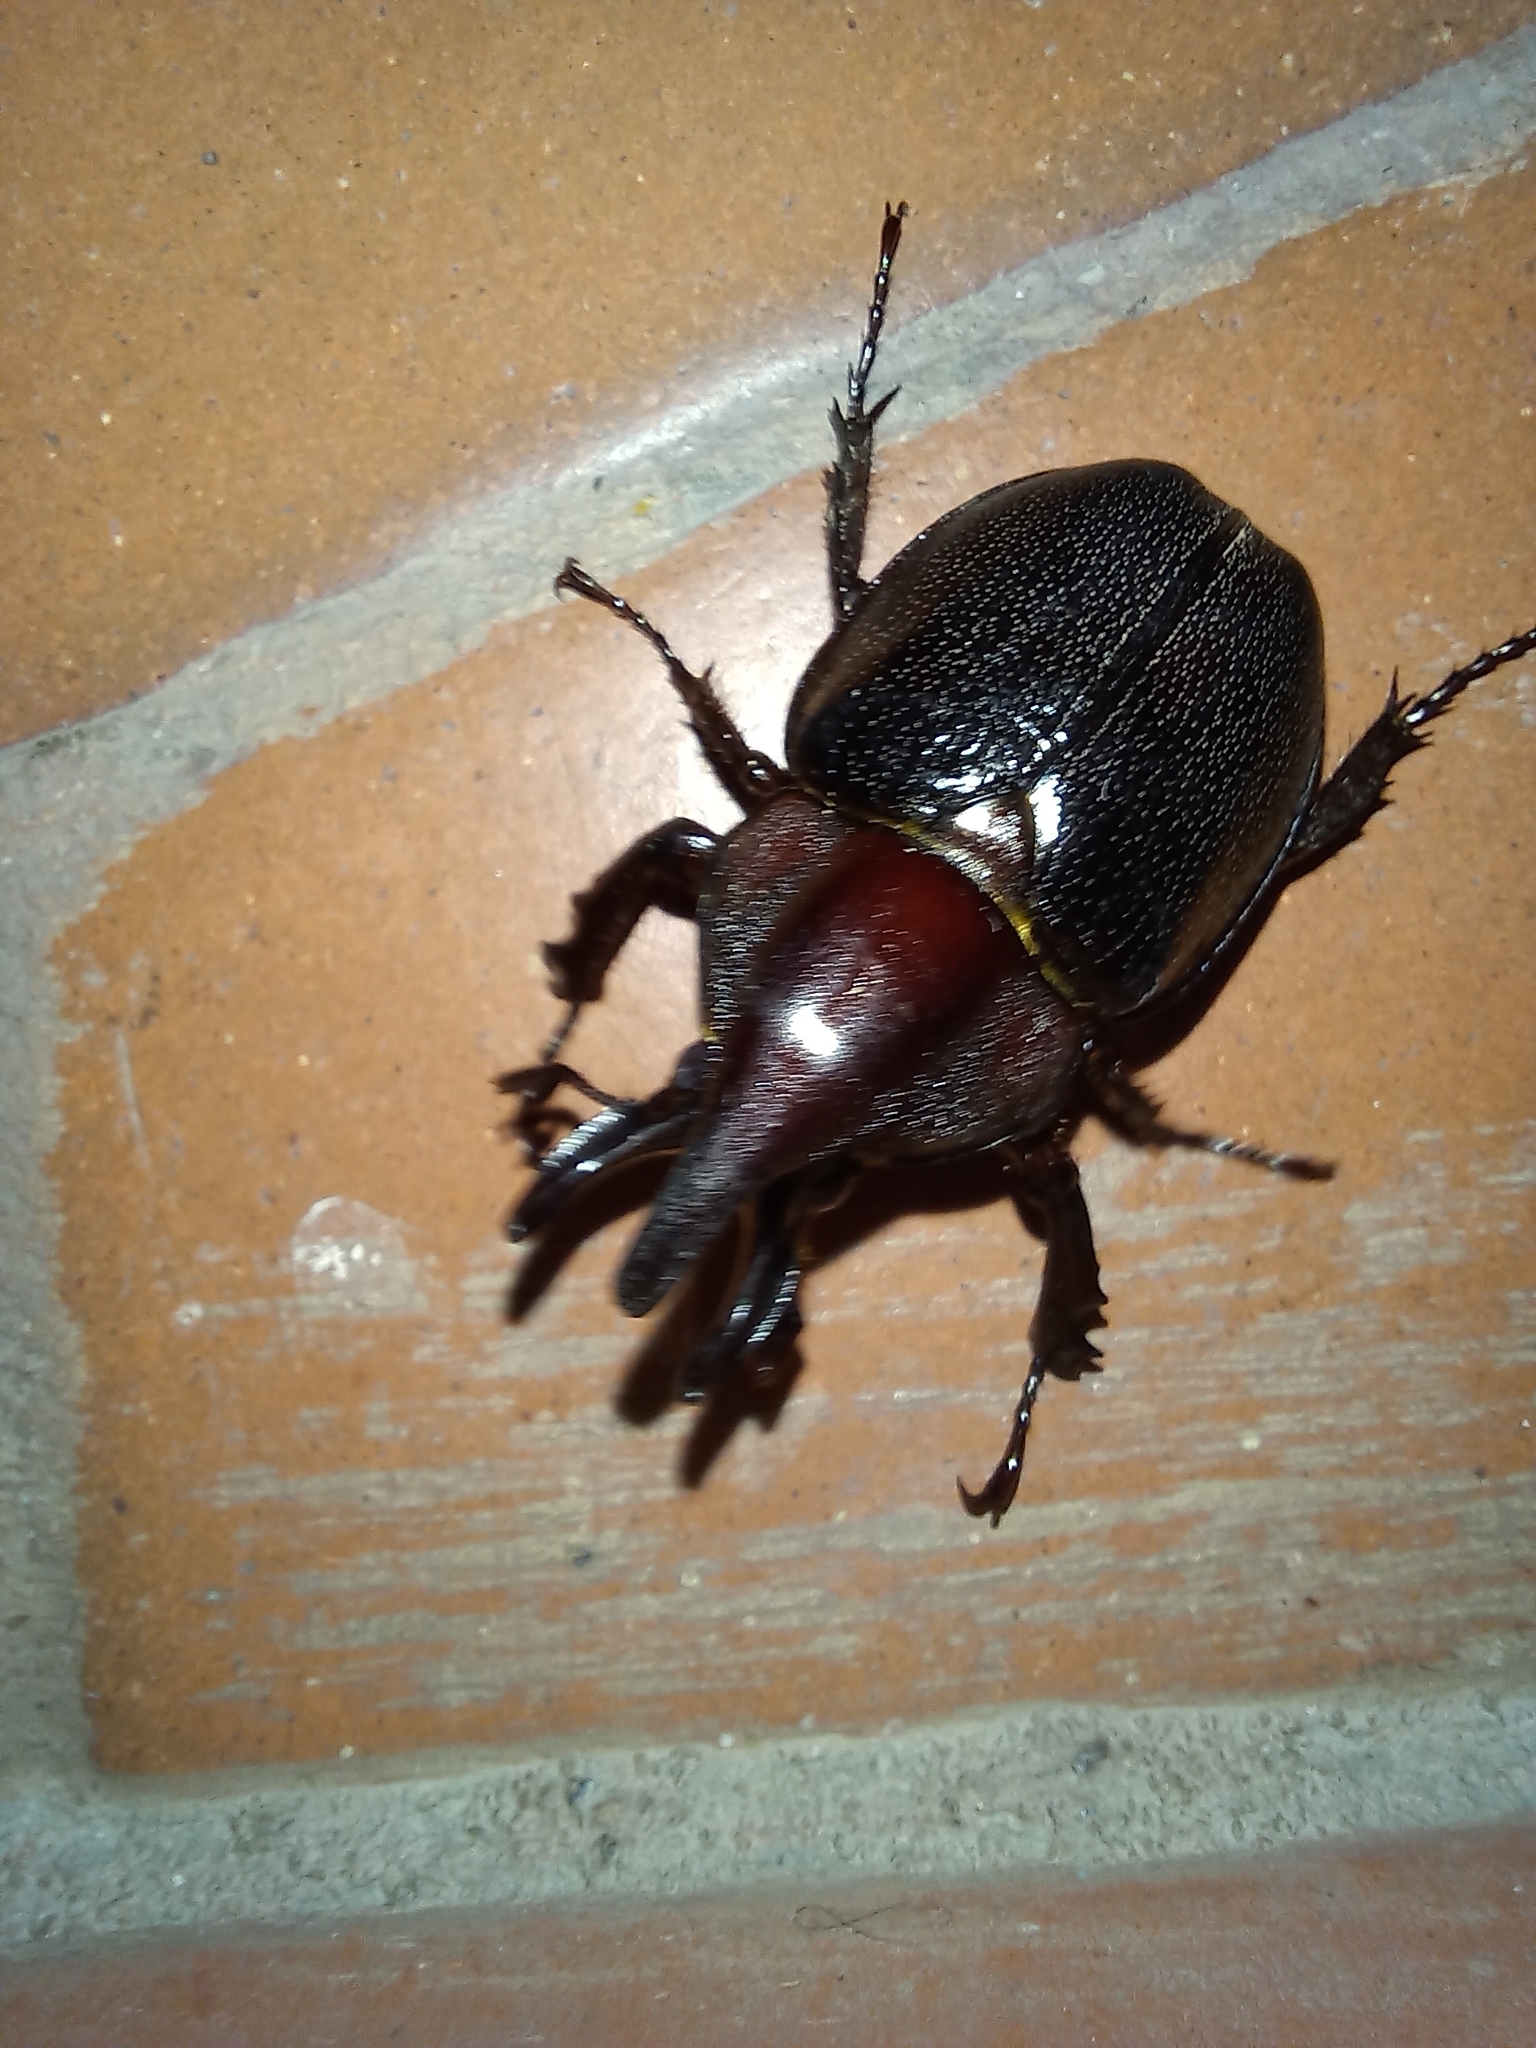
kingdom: Animalia
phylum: Arthropoda
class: Insecta
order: Coleoptera
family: Scarabaeidae
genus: Aegopsis
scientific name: Aegopsis curvicornis
